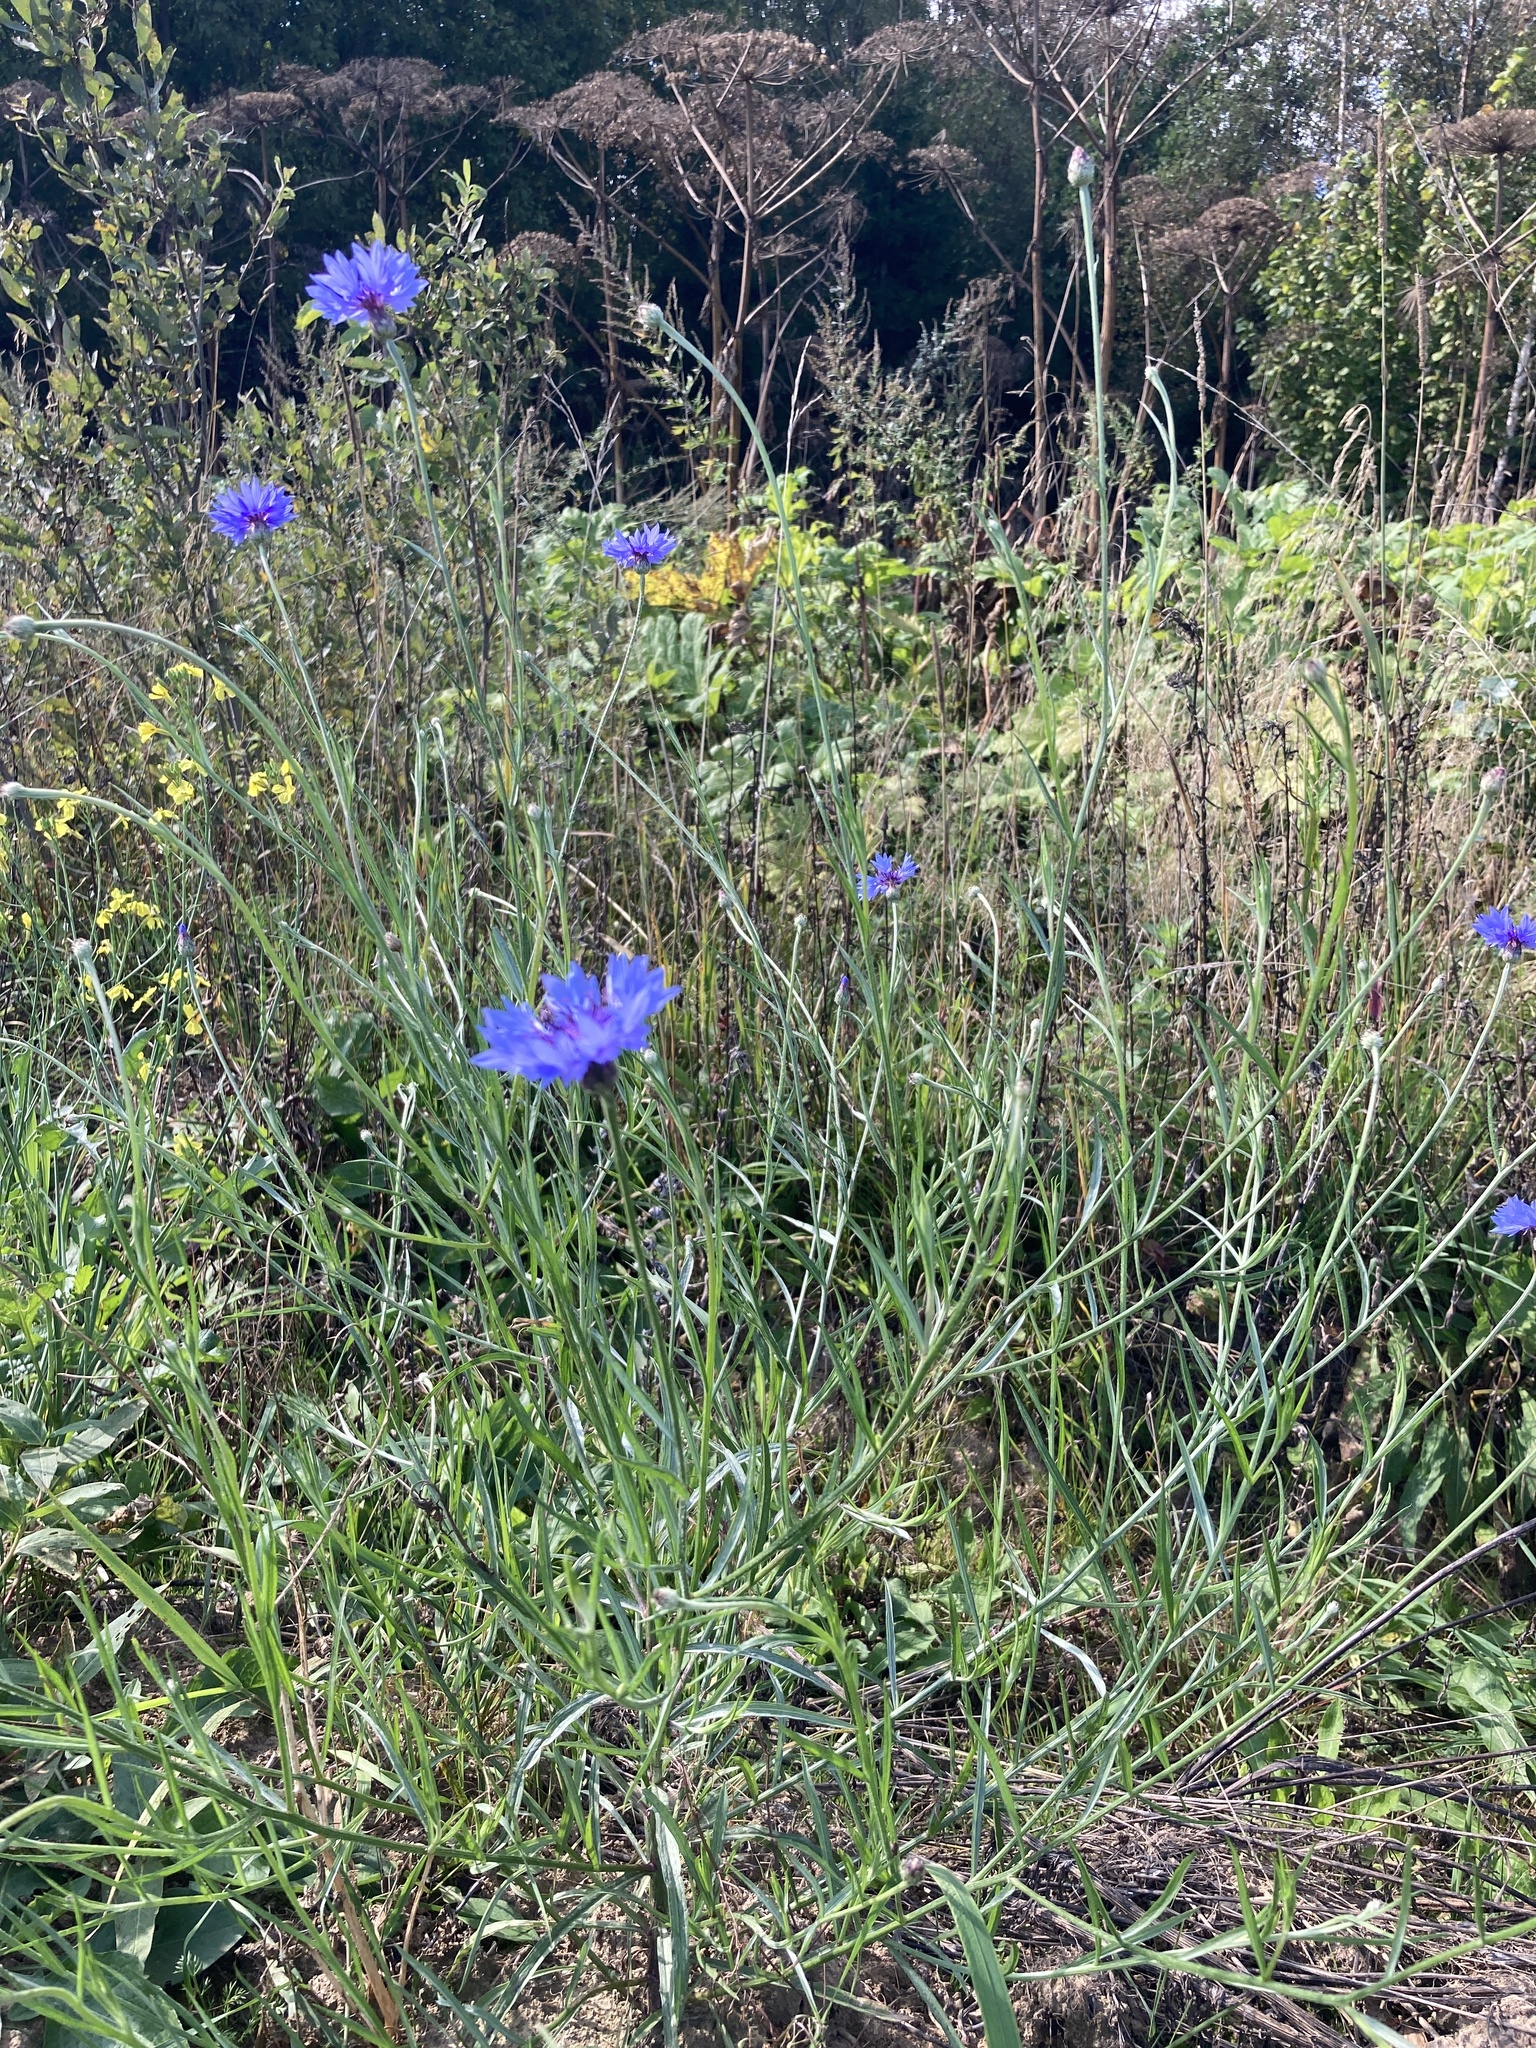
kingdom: Plantae
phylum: Tracheophyta
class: Magnoliopsida
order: Asterales
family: Asteraceae
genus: Centaurea
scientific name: Centaurea cyanus
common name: Cornflower
